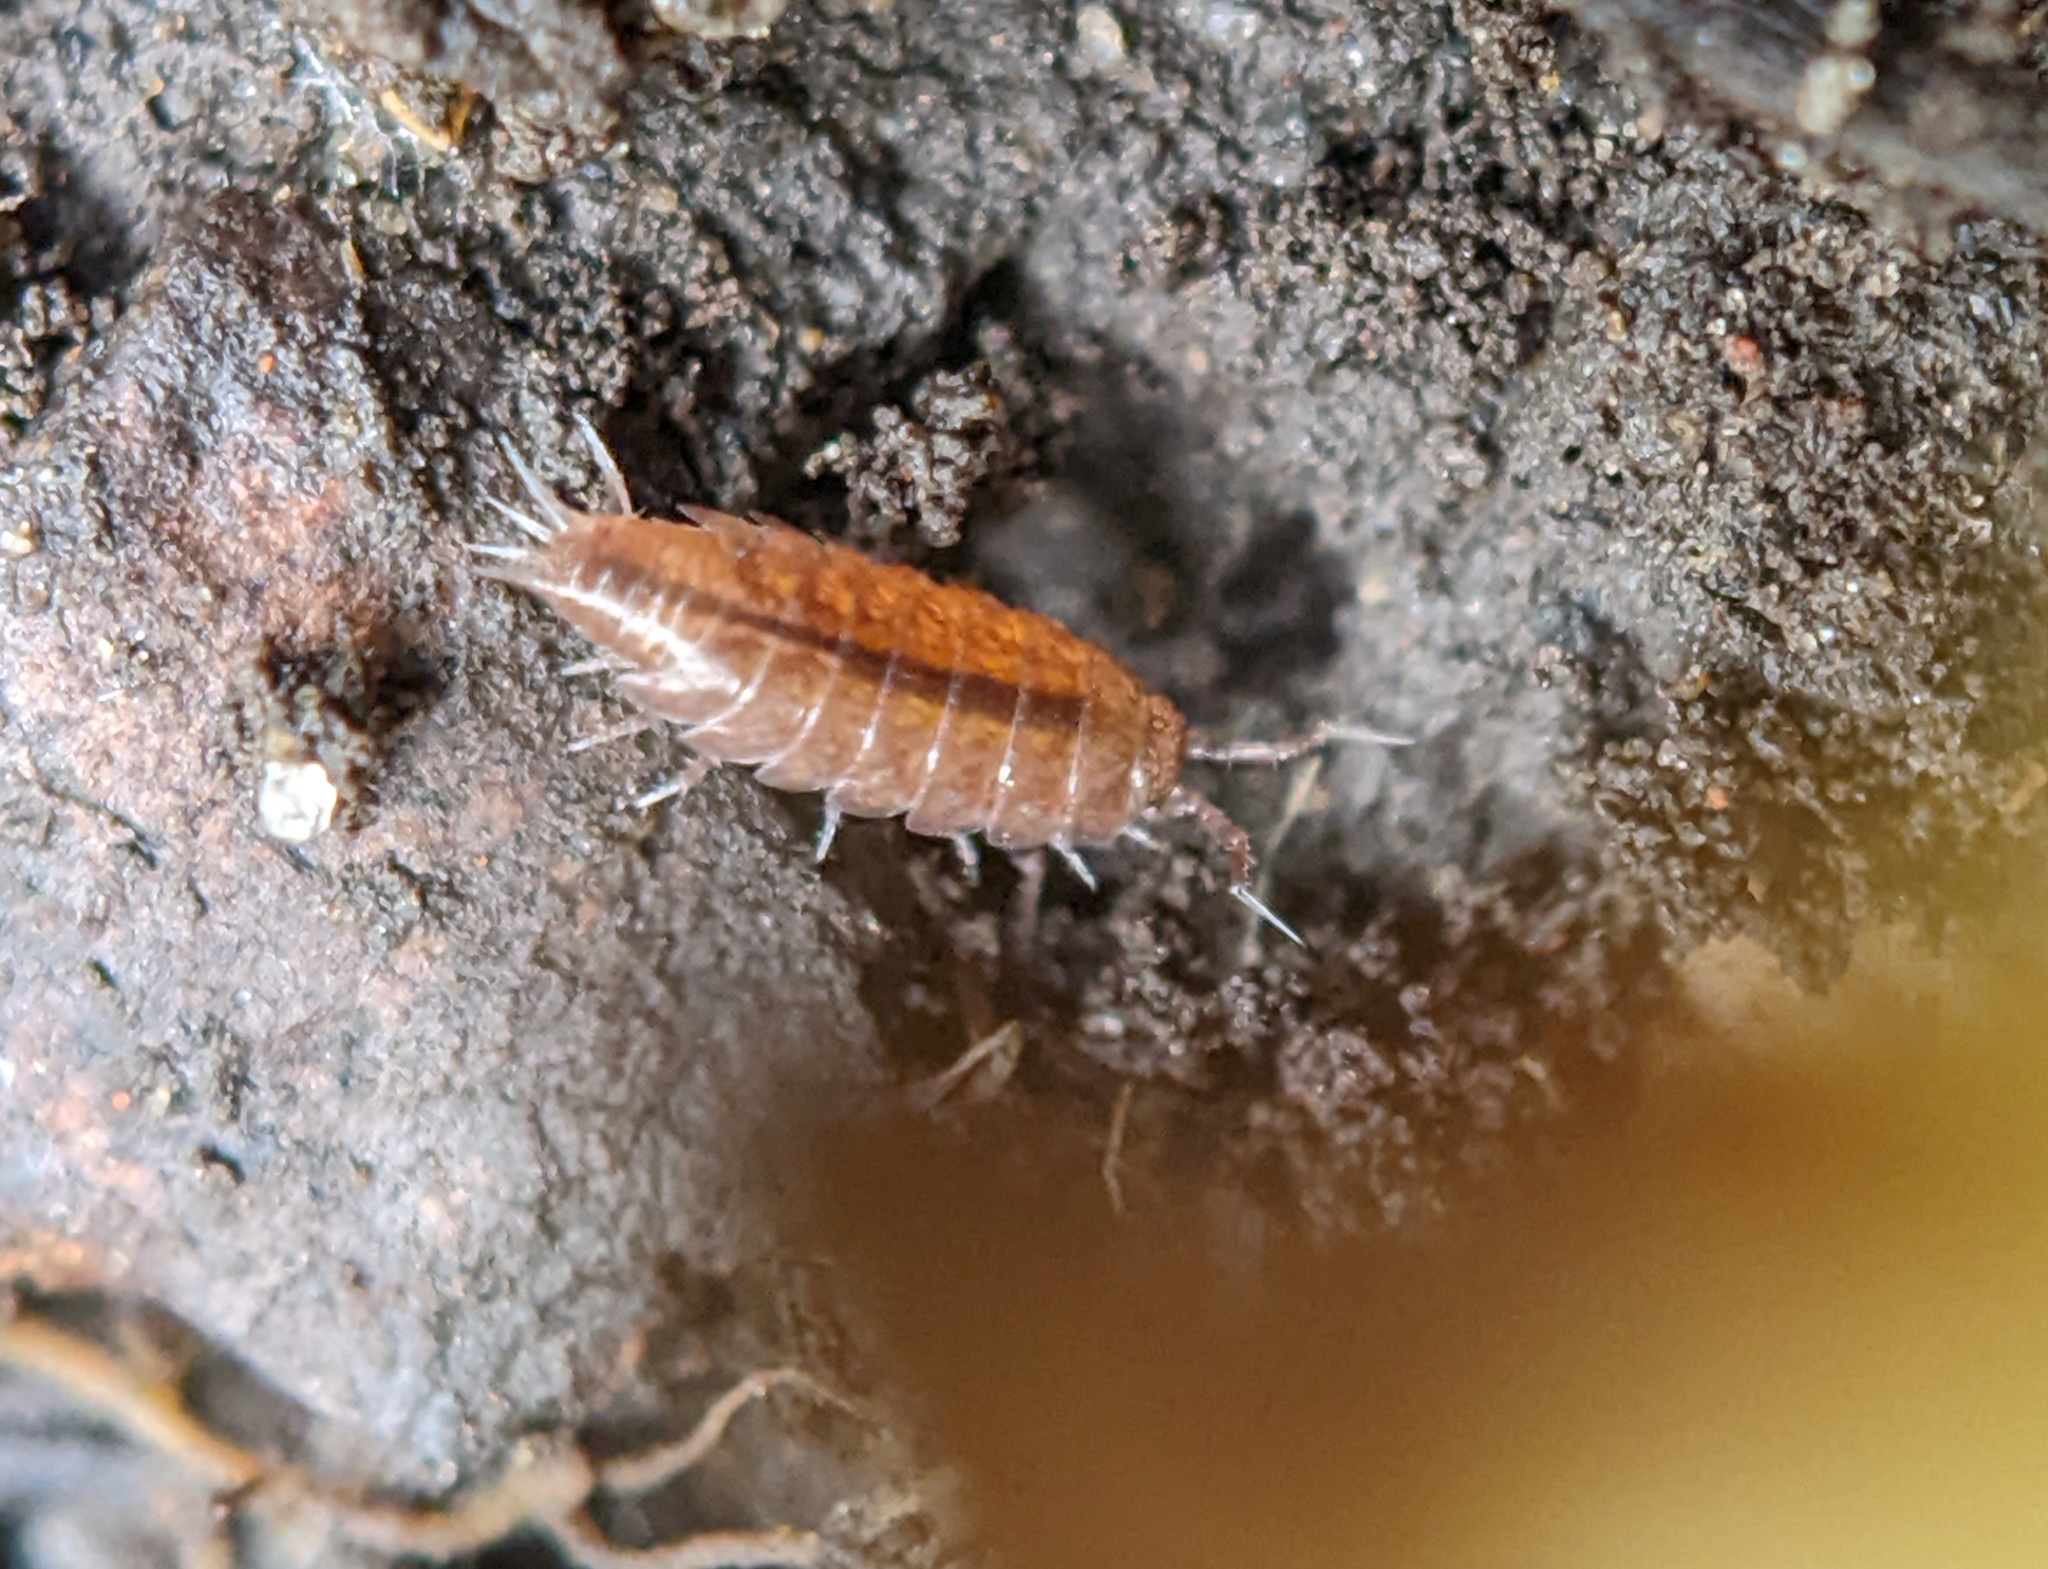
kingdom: Animalia
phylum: Arthropoda
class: Malacostraca
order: Isopoda
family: Trichoniscidae
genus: Trichoniscus
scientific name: Trichoniscus
